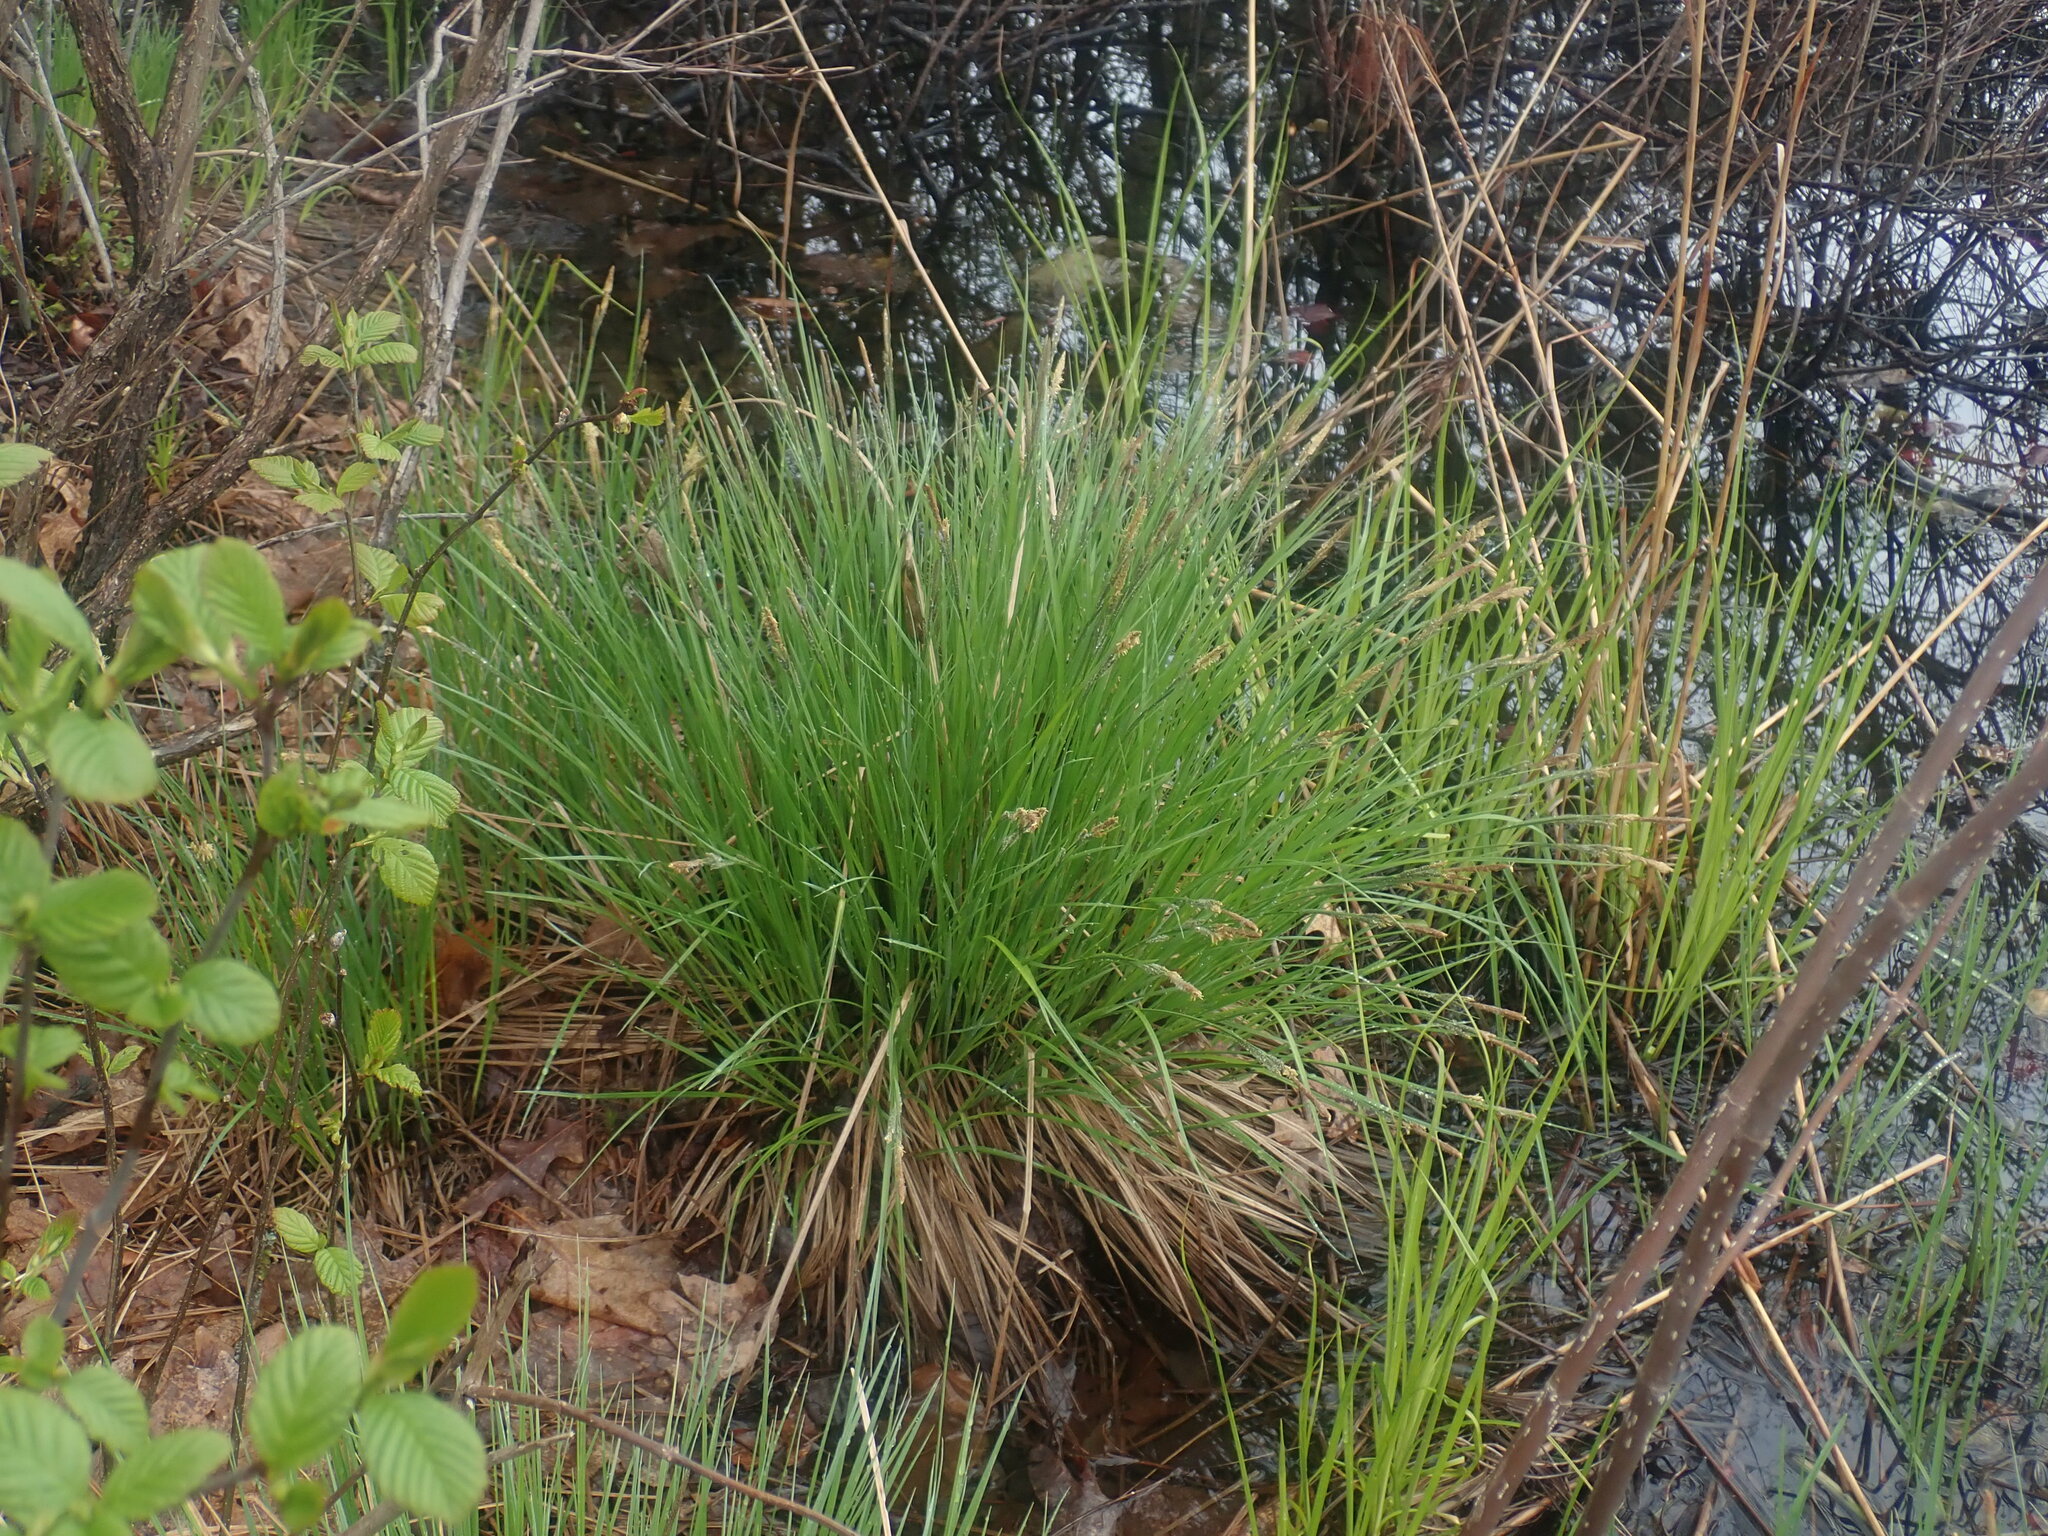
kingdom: Plantae
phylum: Tracheophyta
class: Liliopsida
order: Poales
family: Cyperaceae
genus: Carex
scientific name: Carex stricta
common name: Hummock sedge
